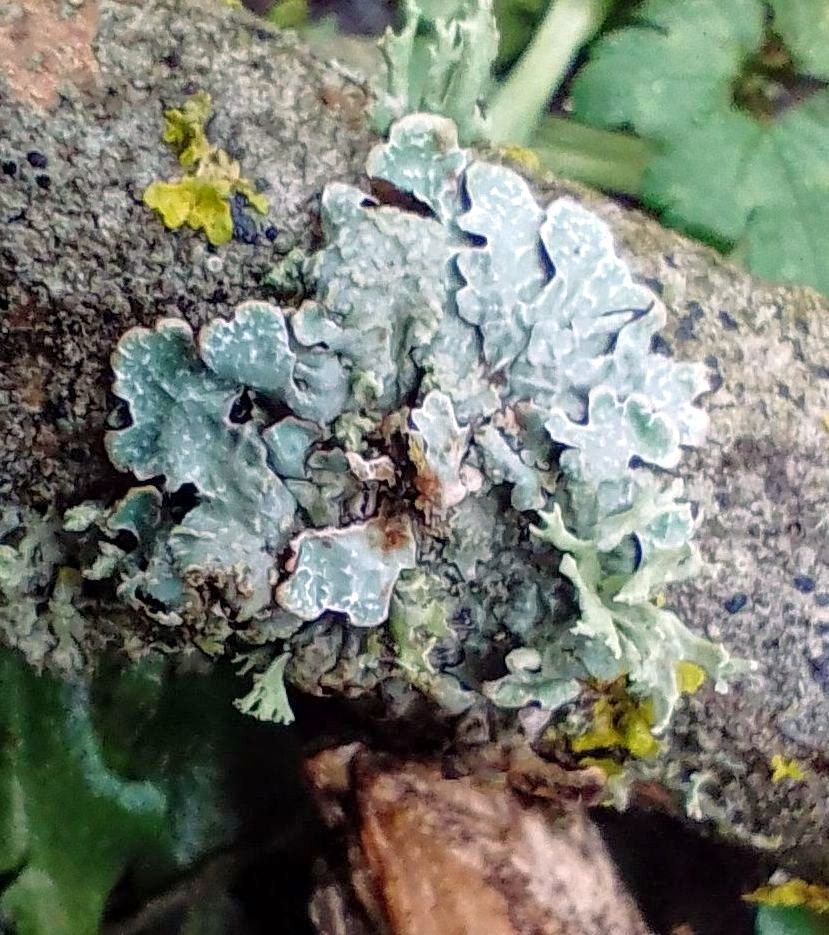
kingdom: Fungi
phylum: Ascomycota
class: Lecanoromycetes
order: Lecanorales
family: Parmeliaceae
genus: Parmelia
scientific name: Parmelia sulcata
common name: Netted shield lichen
